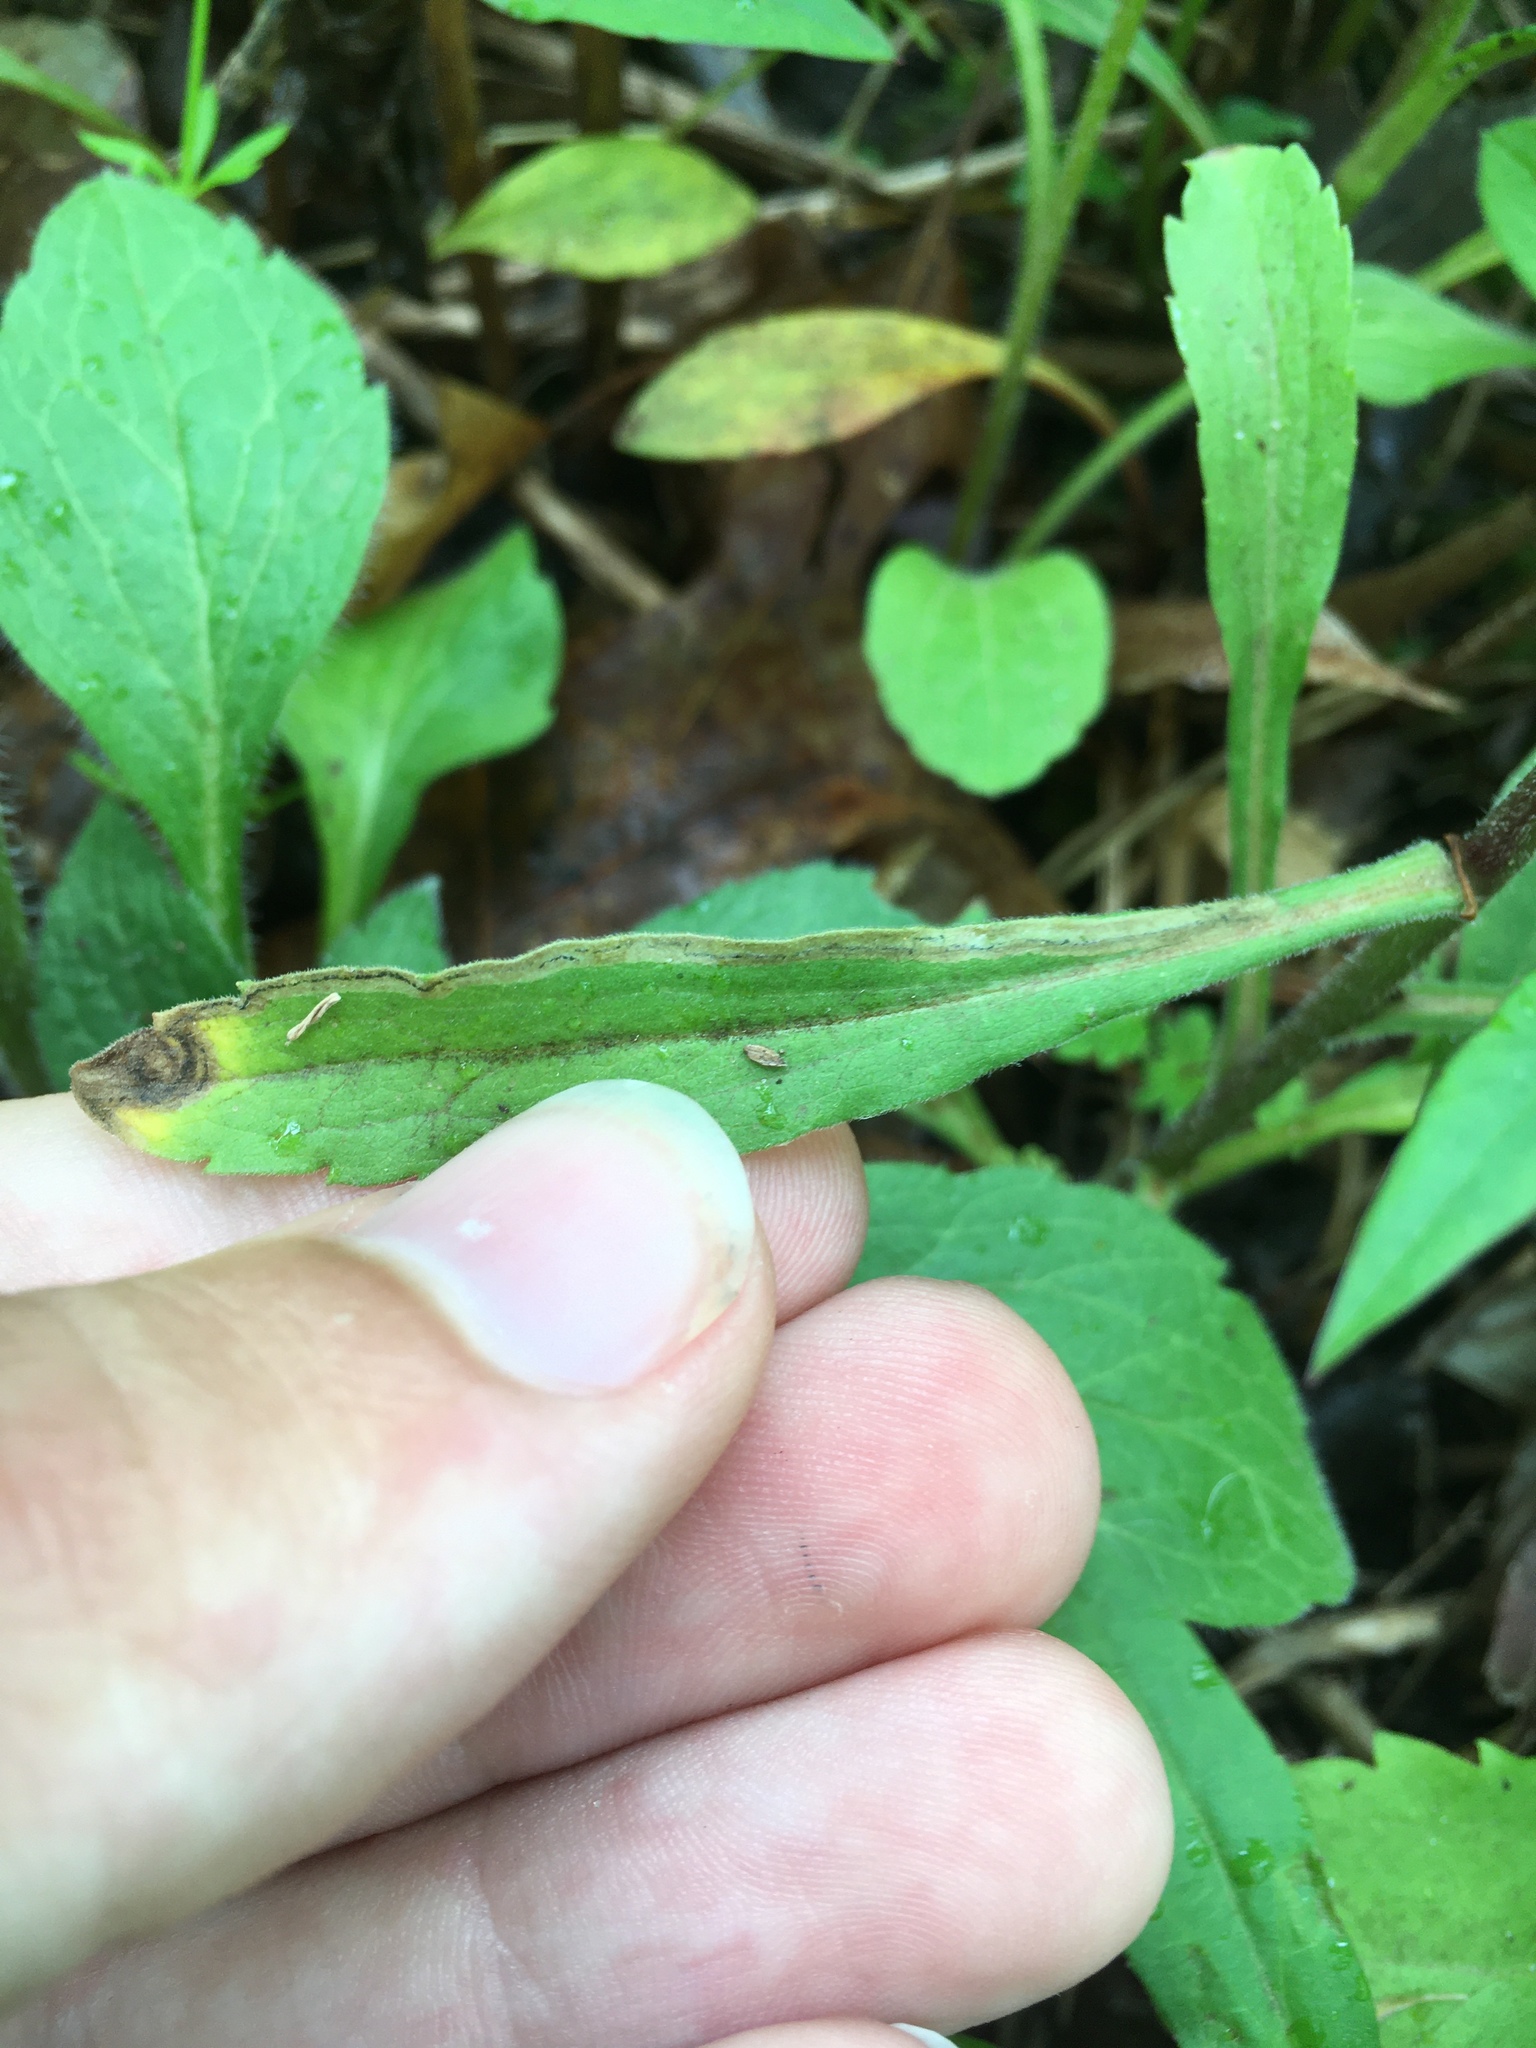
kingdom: Animalia
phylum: Arthropoda
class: Insecta
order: Diptera
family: Agromyzidae
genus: Liriomyza
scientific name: Liriomyza eupatorii
